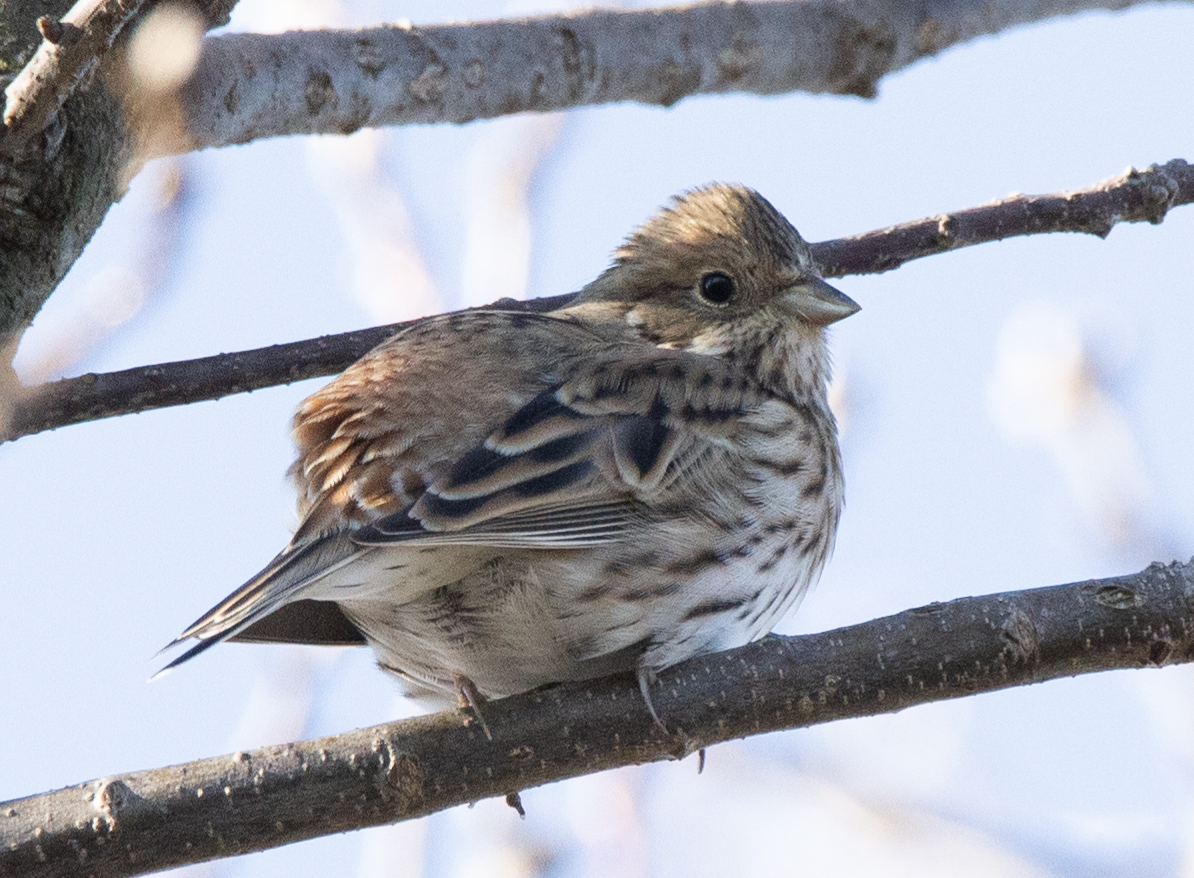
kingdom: Animalia
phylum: Chordata
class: Aves
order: Passeriformes
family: Emberizidae
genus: Emberiza
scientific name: Emberiza leucocephalos
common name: Pine bunting
